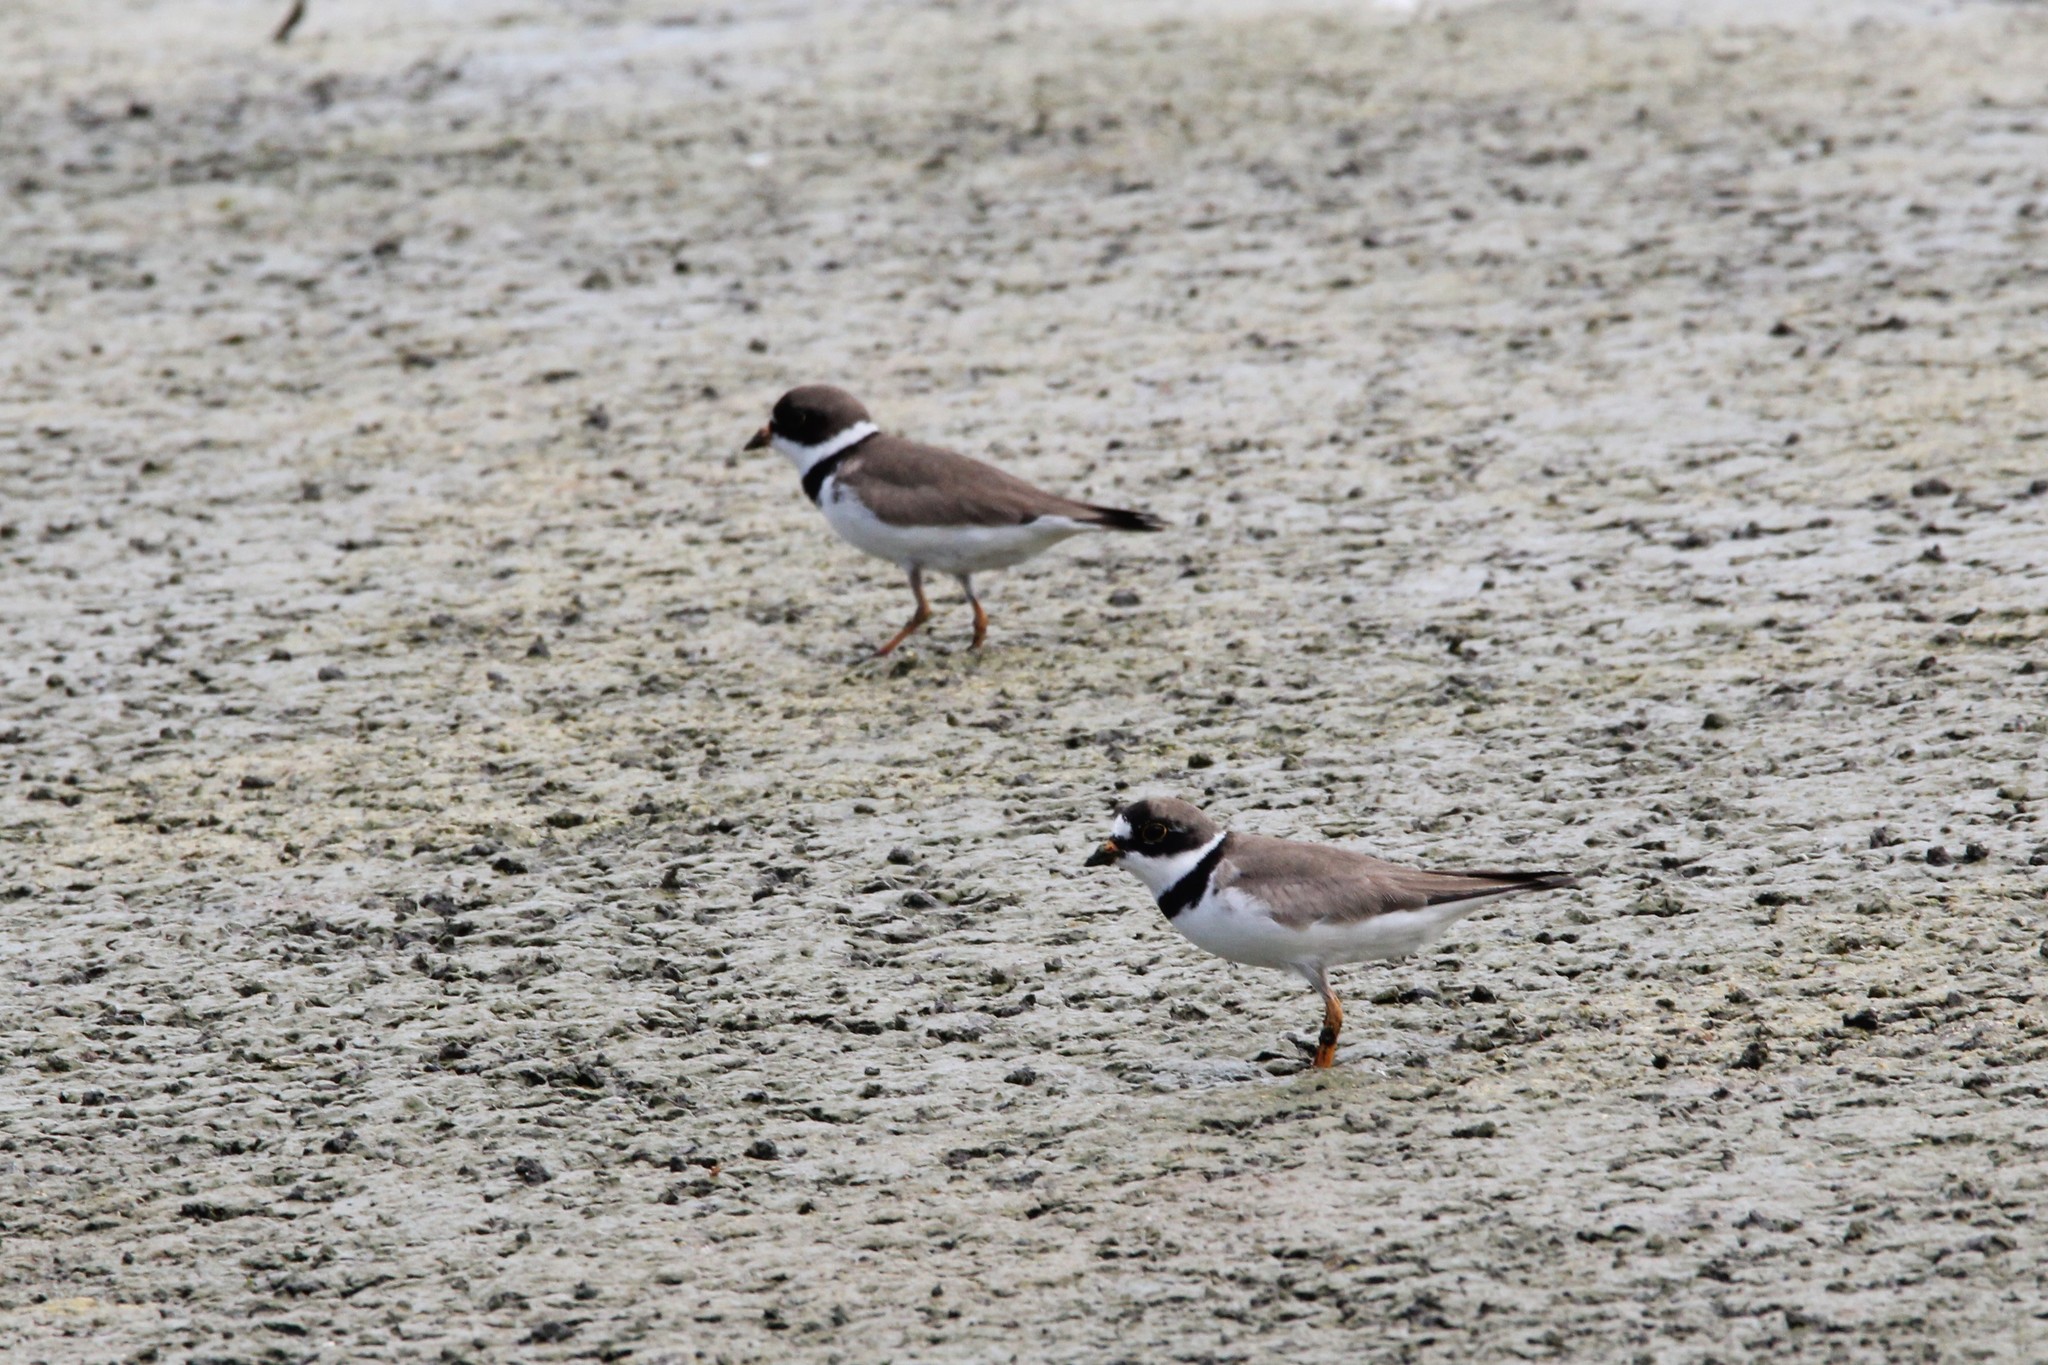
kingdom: Animalia
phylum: Chordata
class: Aves
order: Charadriiformes
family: Charadriidae
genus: Charadrius
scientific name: Charadrius semipalmatus
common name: Semipalmated plover
